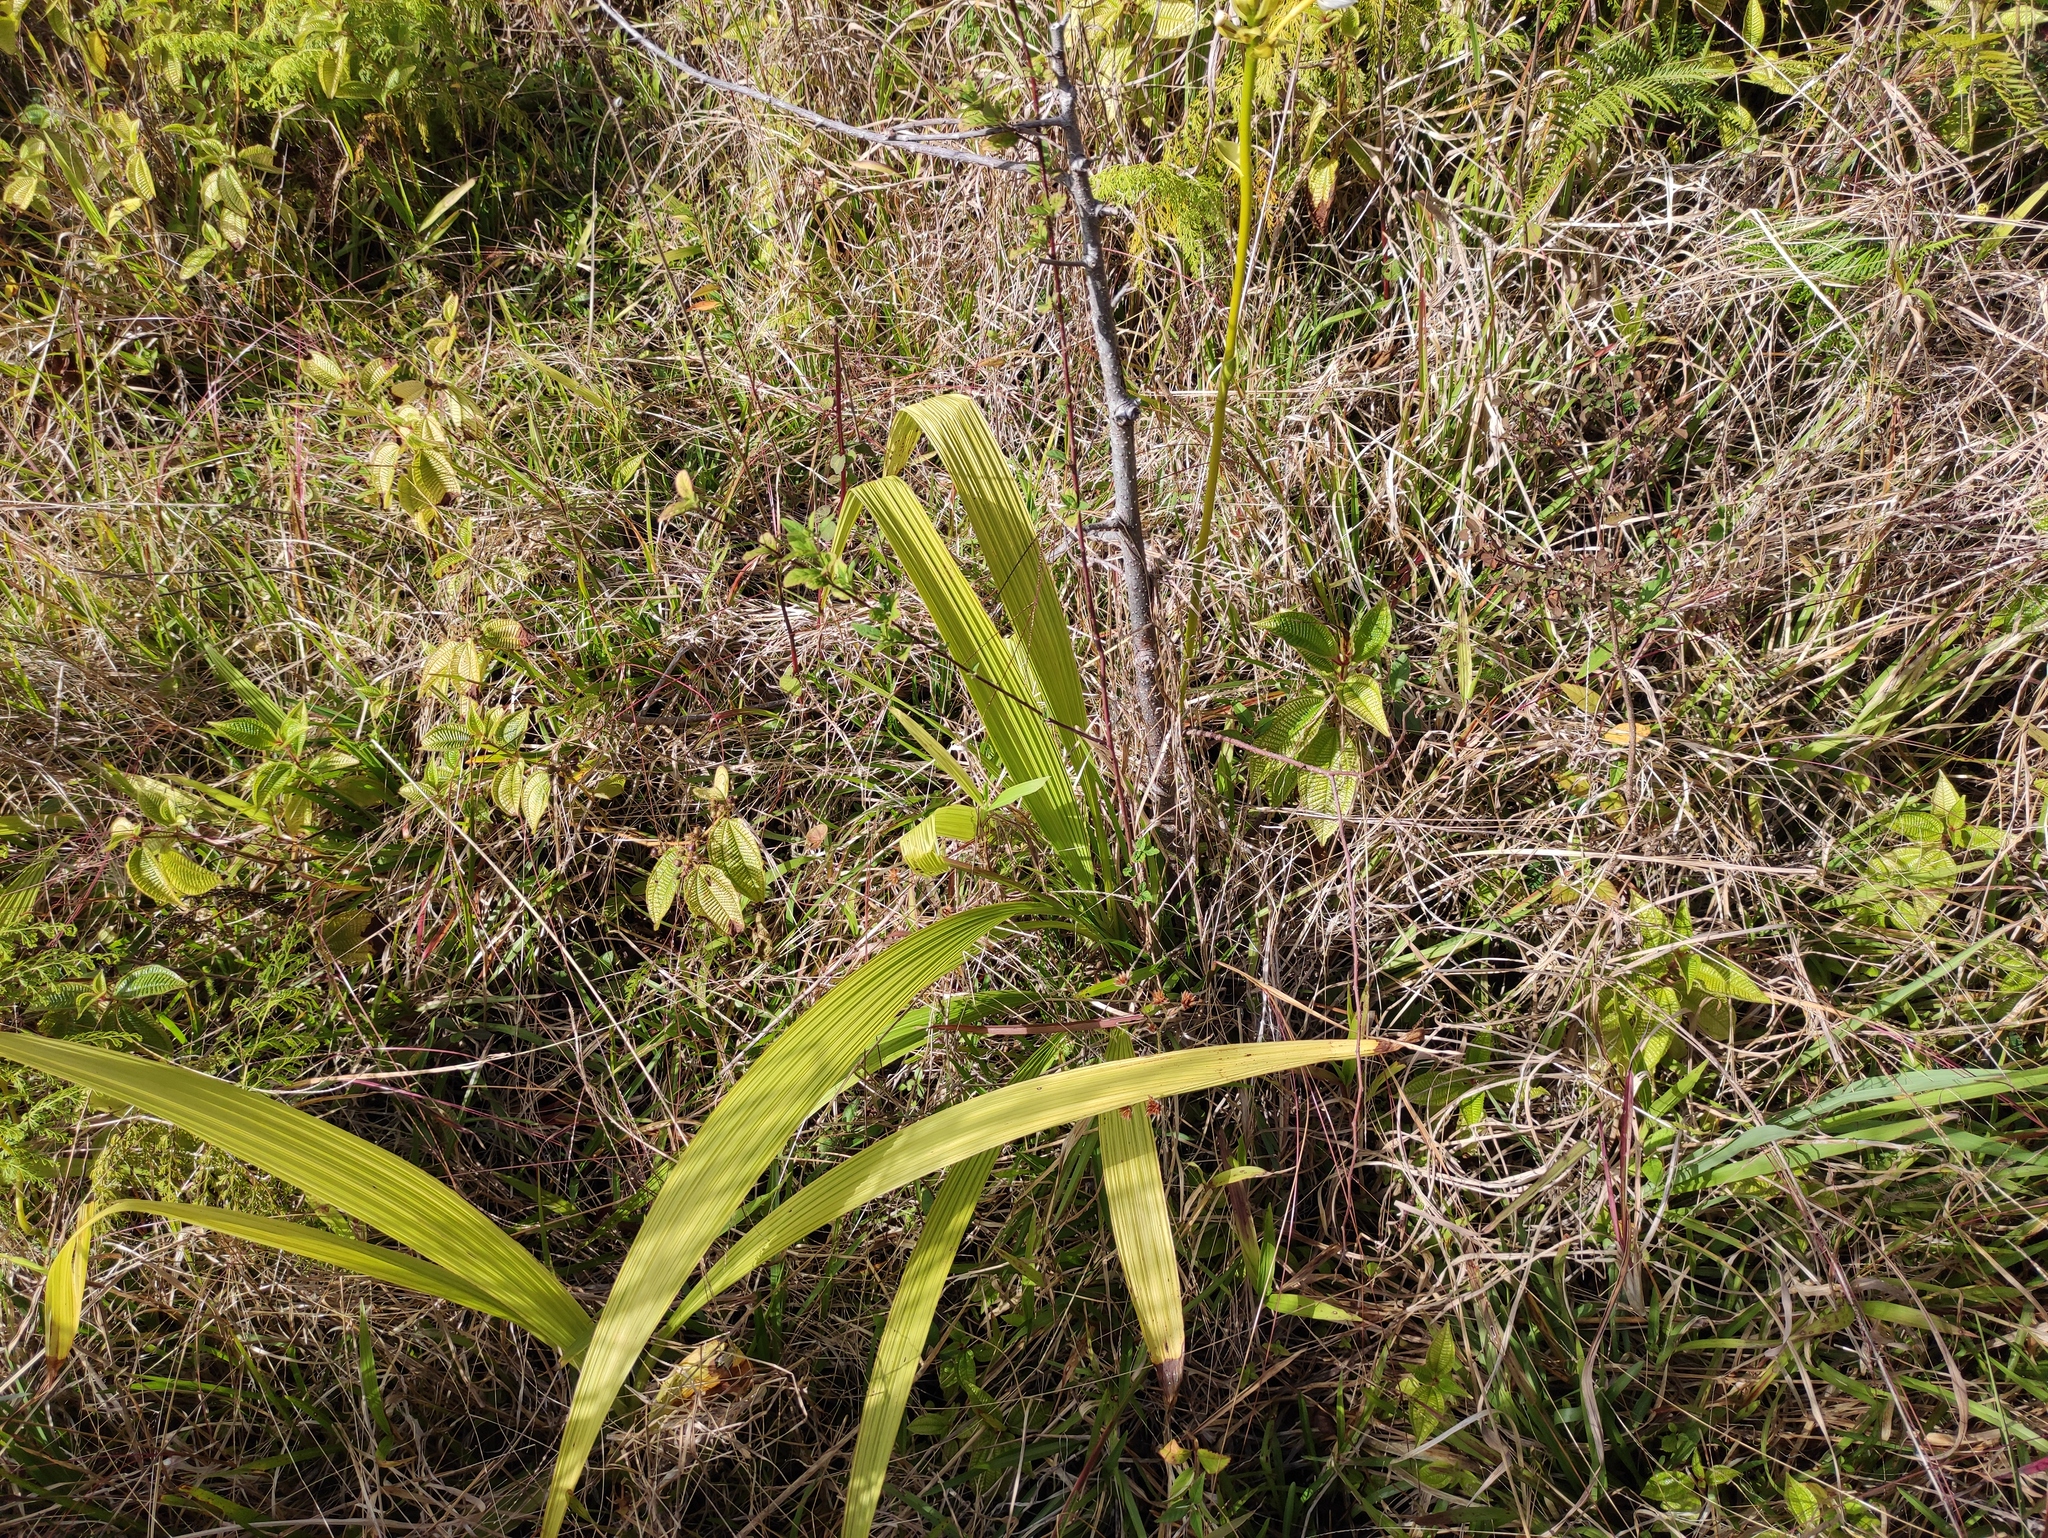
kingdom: Plantae
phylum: Tracheophyta
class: Liliopsida
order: Asparagales
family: Orchidaceae
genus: Spathoglottis
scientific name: Spathoglottis plicata
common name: Philippine ground orchid
